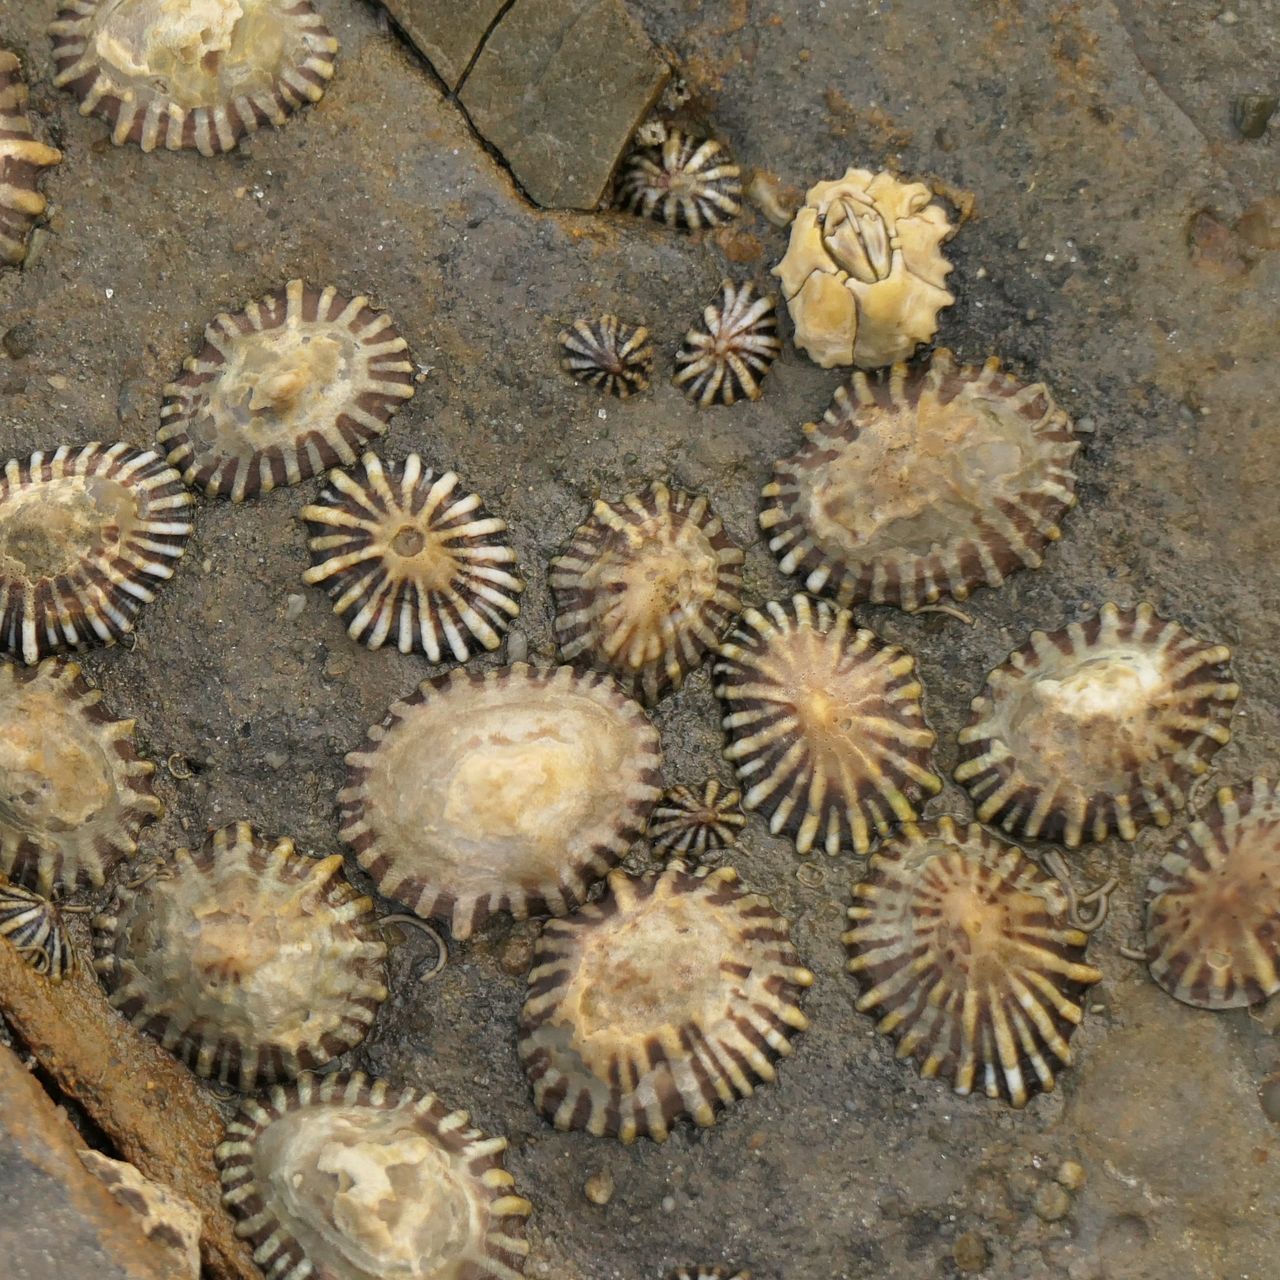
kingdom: Animalia
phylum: Mollusca
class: Gastropoda
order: Siphonariida
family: Siphonariidae
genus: Siphonaria
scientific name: Siphonaria diemenensis
